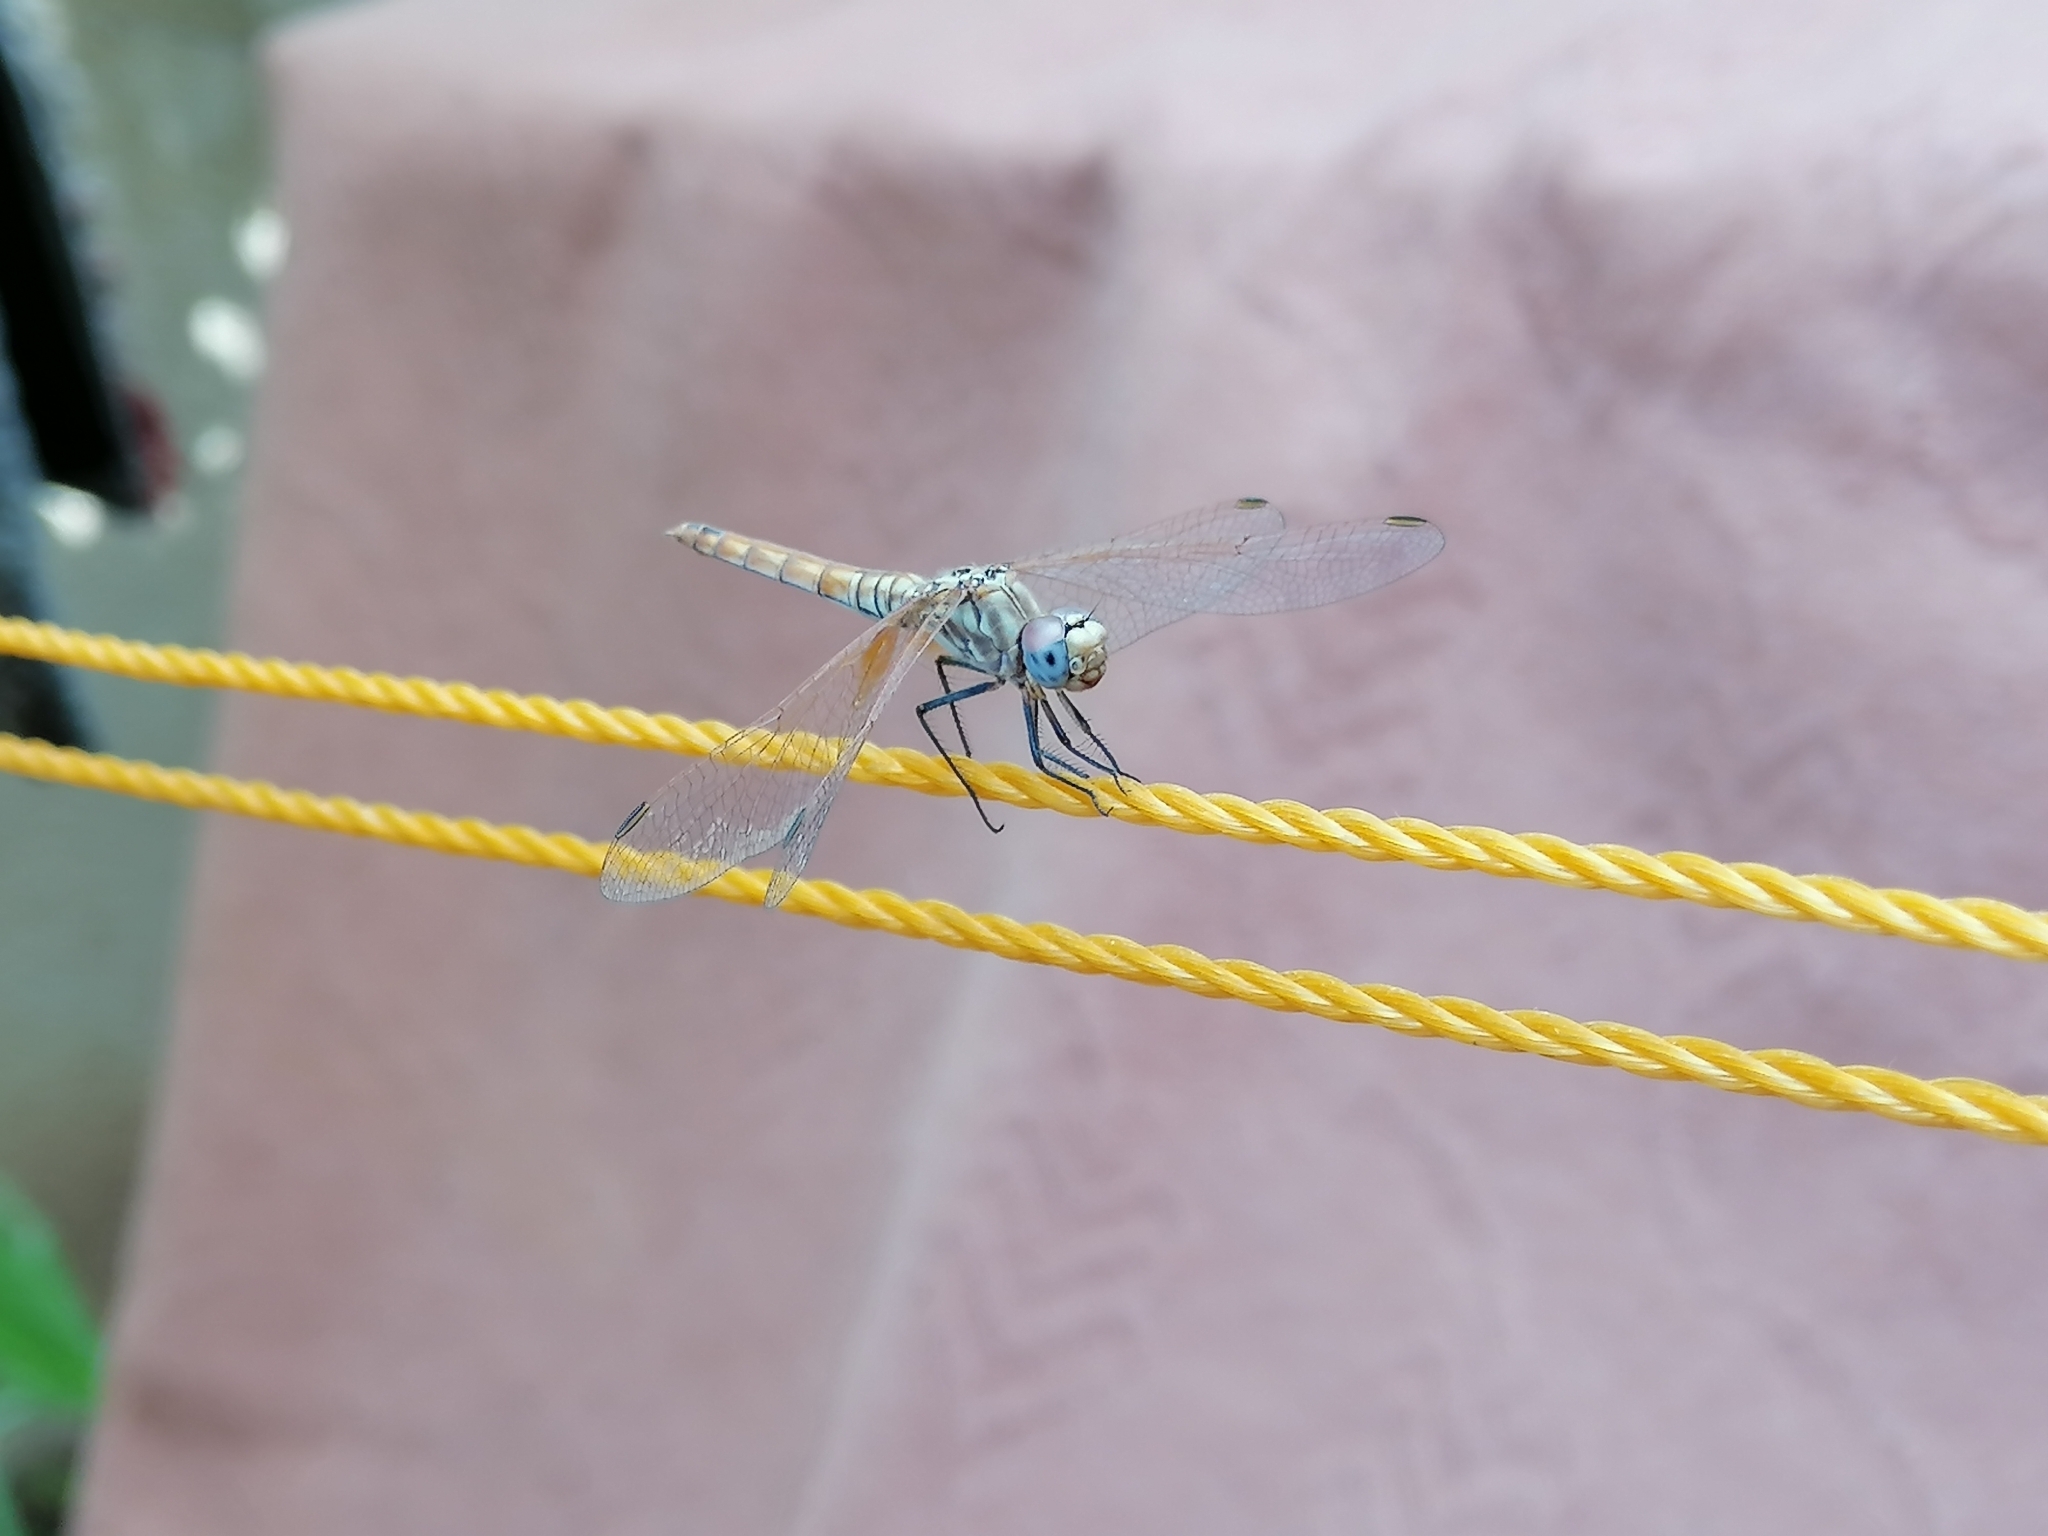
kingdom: Animalia
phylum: Arthropoda
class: Insecta
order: Odonata
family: Libellulidae
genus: Trithemis
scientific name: Trithemis annulata
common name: Violet dropwing
